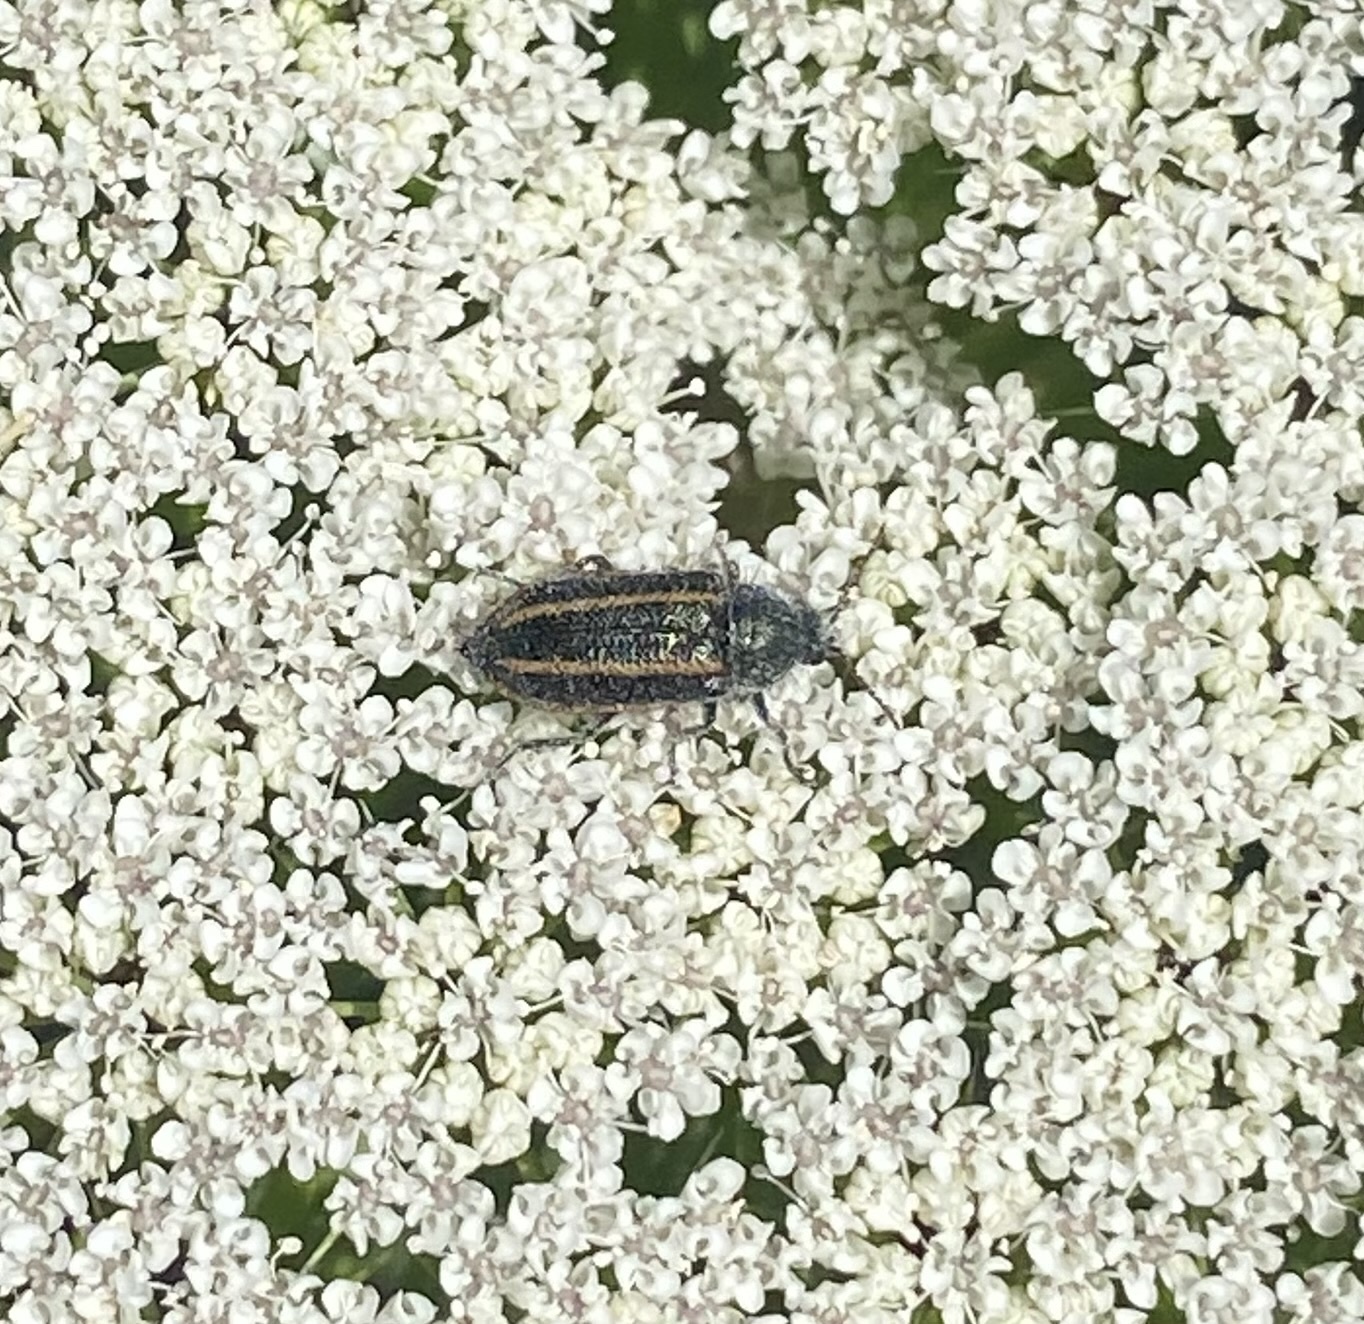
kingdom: Animalia
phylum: Arthropoda
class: Insecta
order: Coleoptera
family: Melyridae
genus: Astylus
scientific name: Astylus
